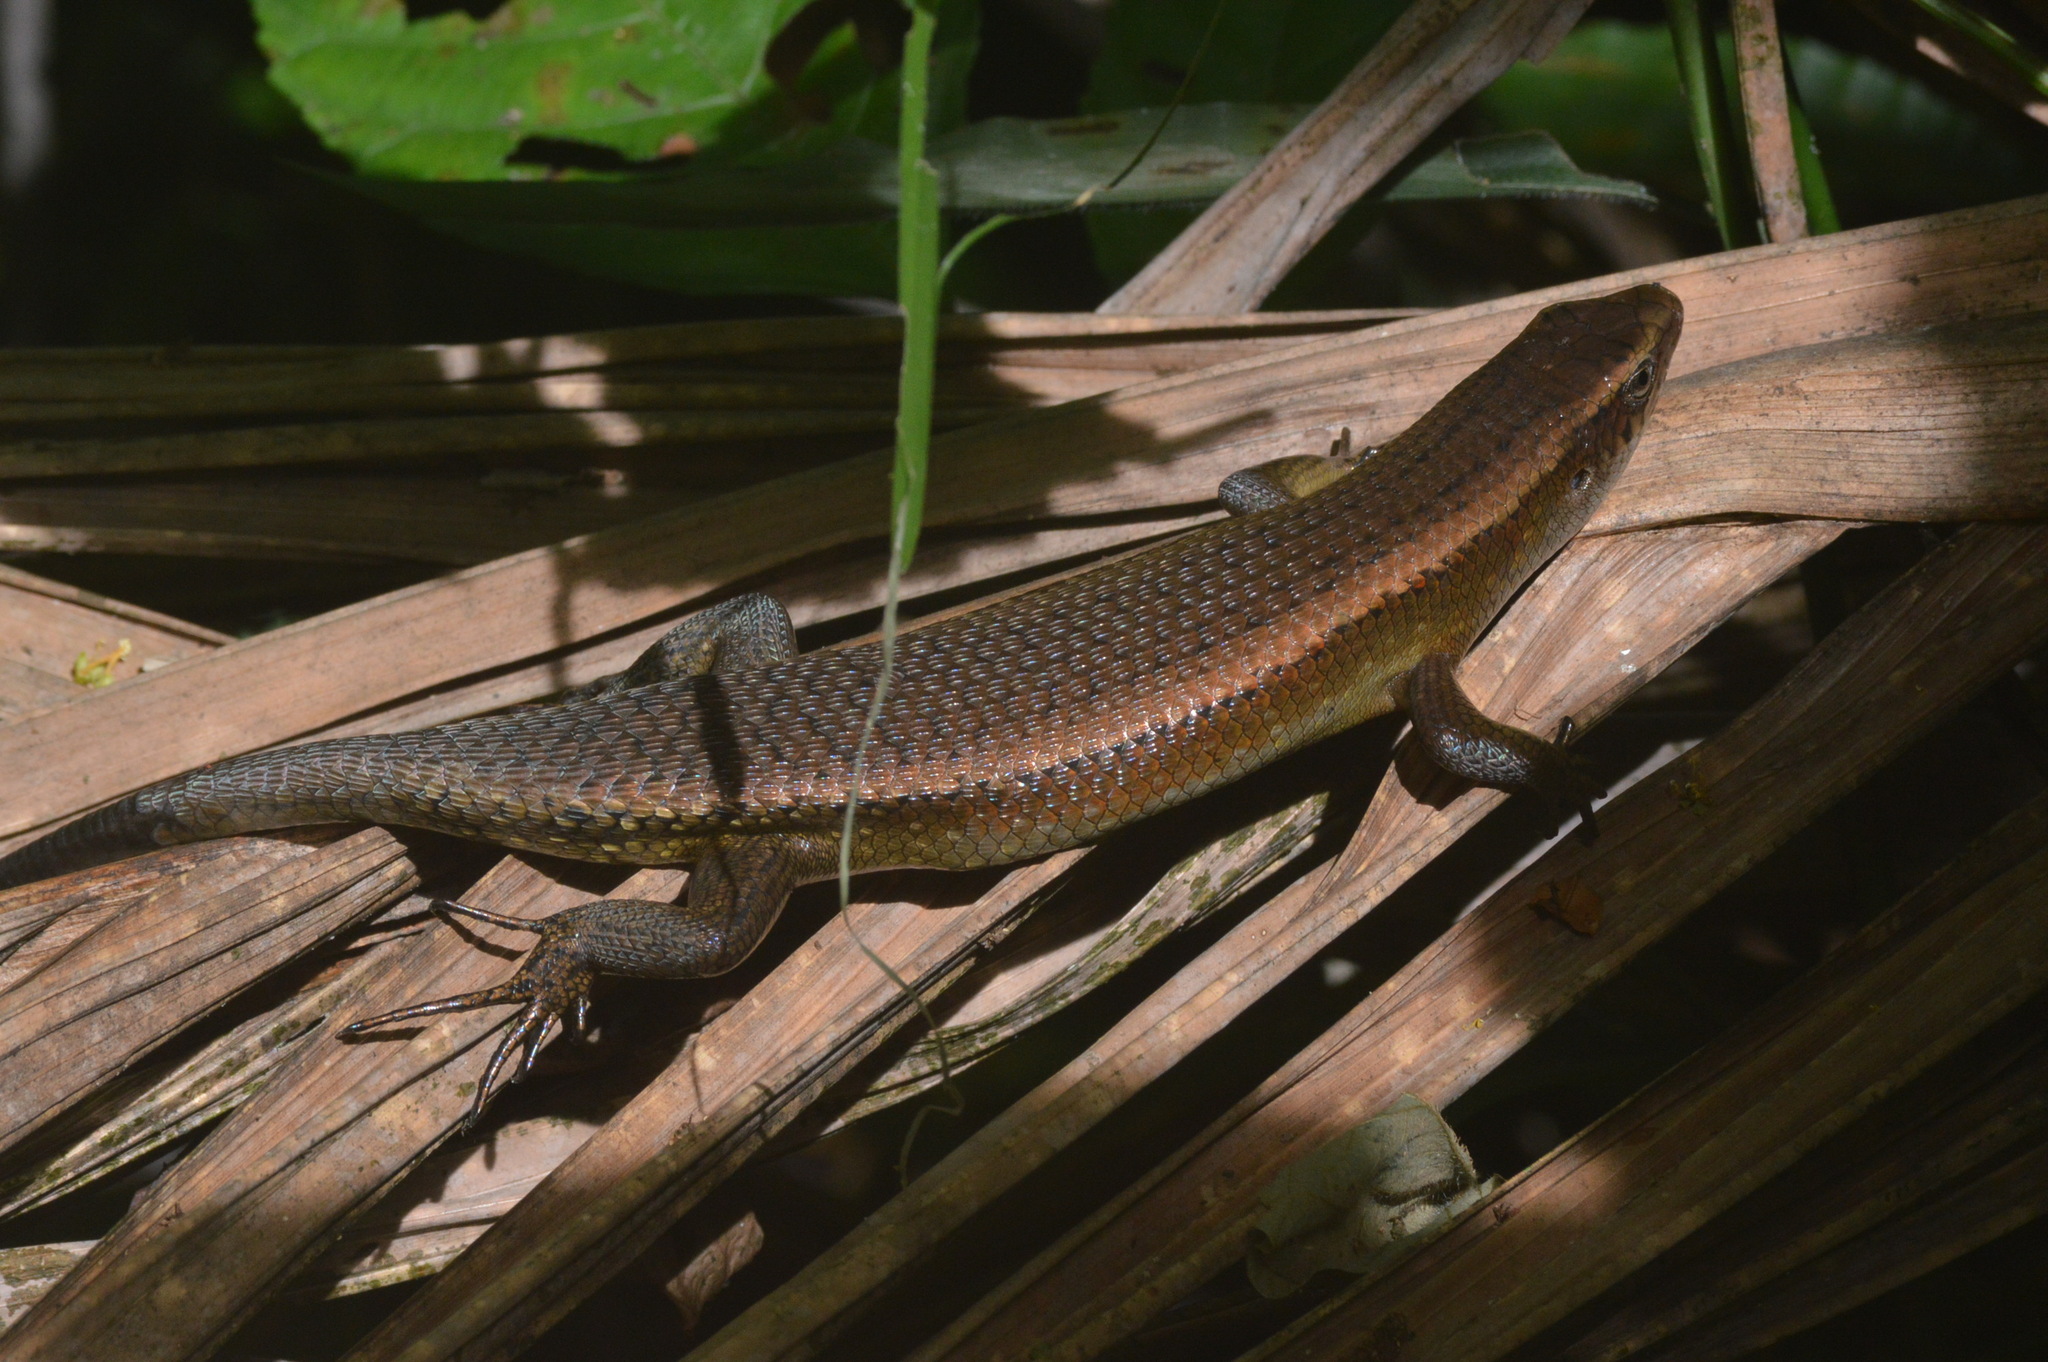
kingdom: Animalia
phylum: Chordata
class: Squamata
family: Scincidae
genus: Eutropis
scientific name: Eutropis multifasciata
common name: Common mabuya
